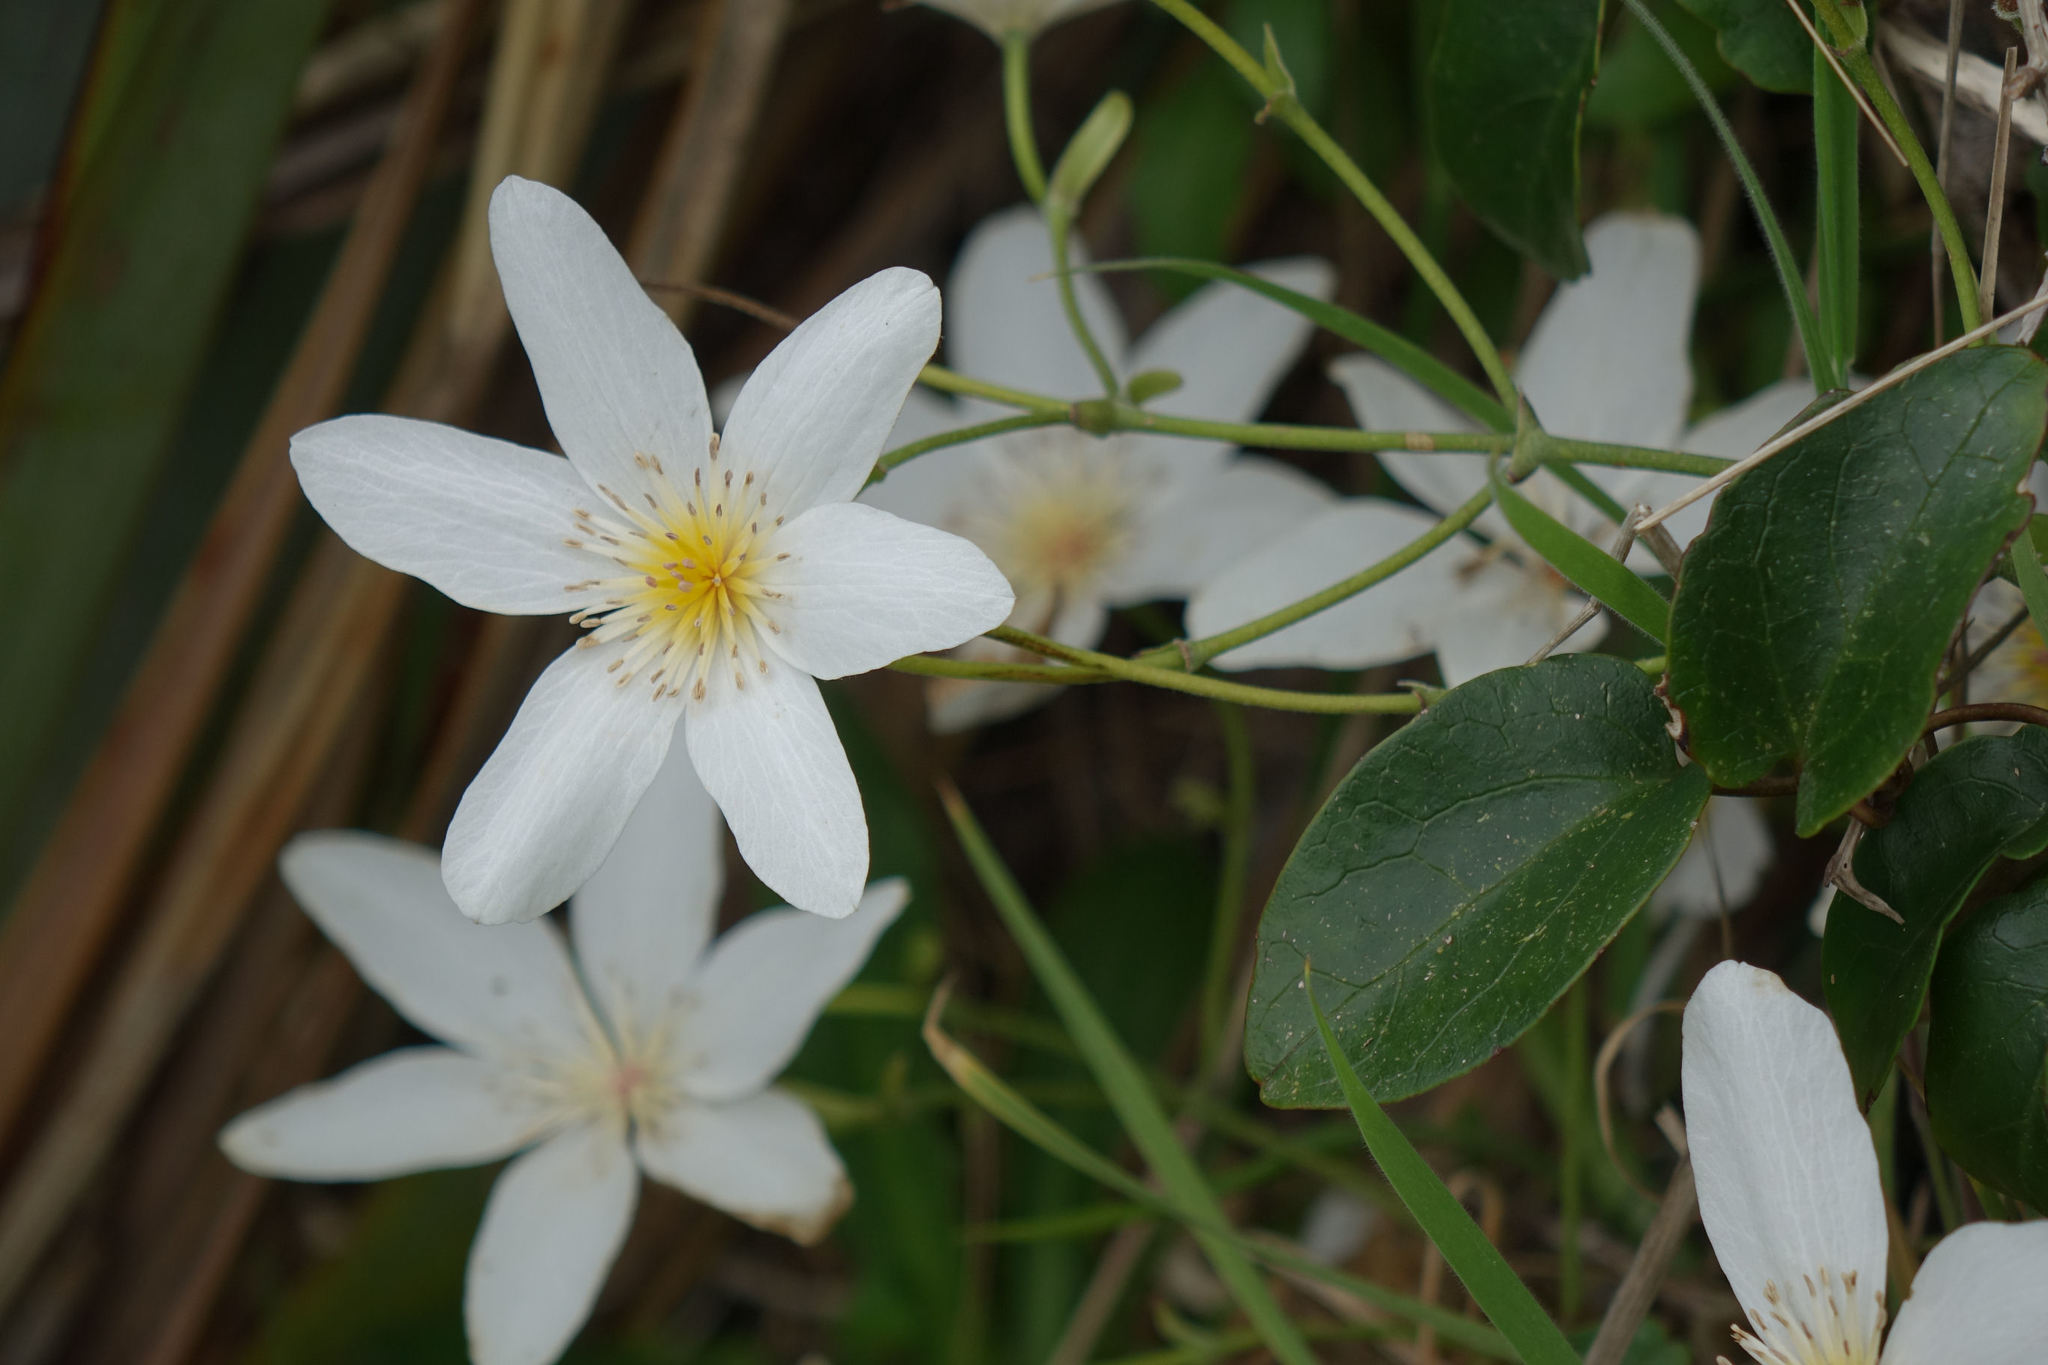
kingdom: Plantae
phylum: Tracheophyta
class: Magnoliopsida
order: Ranunculales
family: Ranunculaceae
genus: Clematis
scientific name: Clematis paniculata
